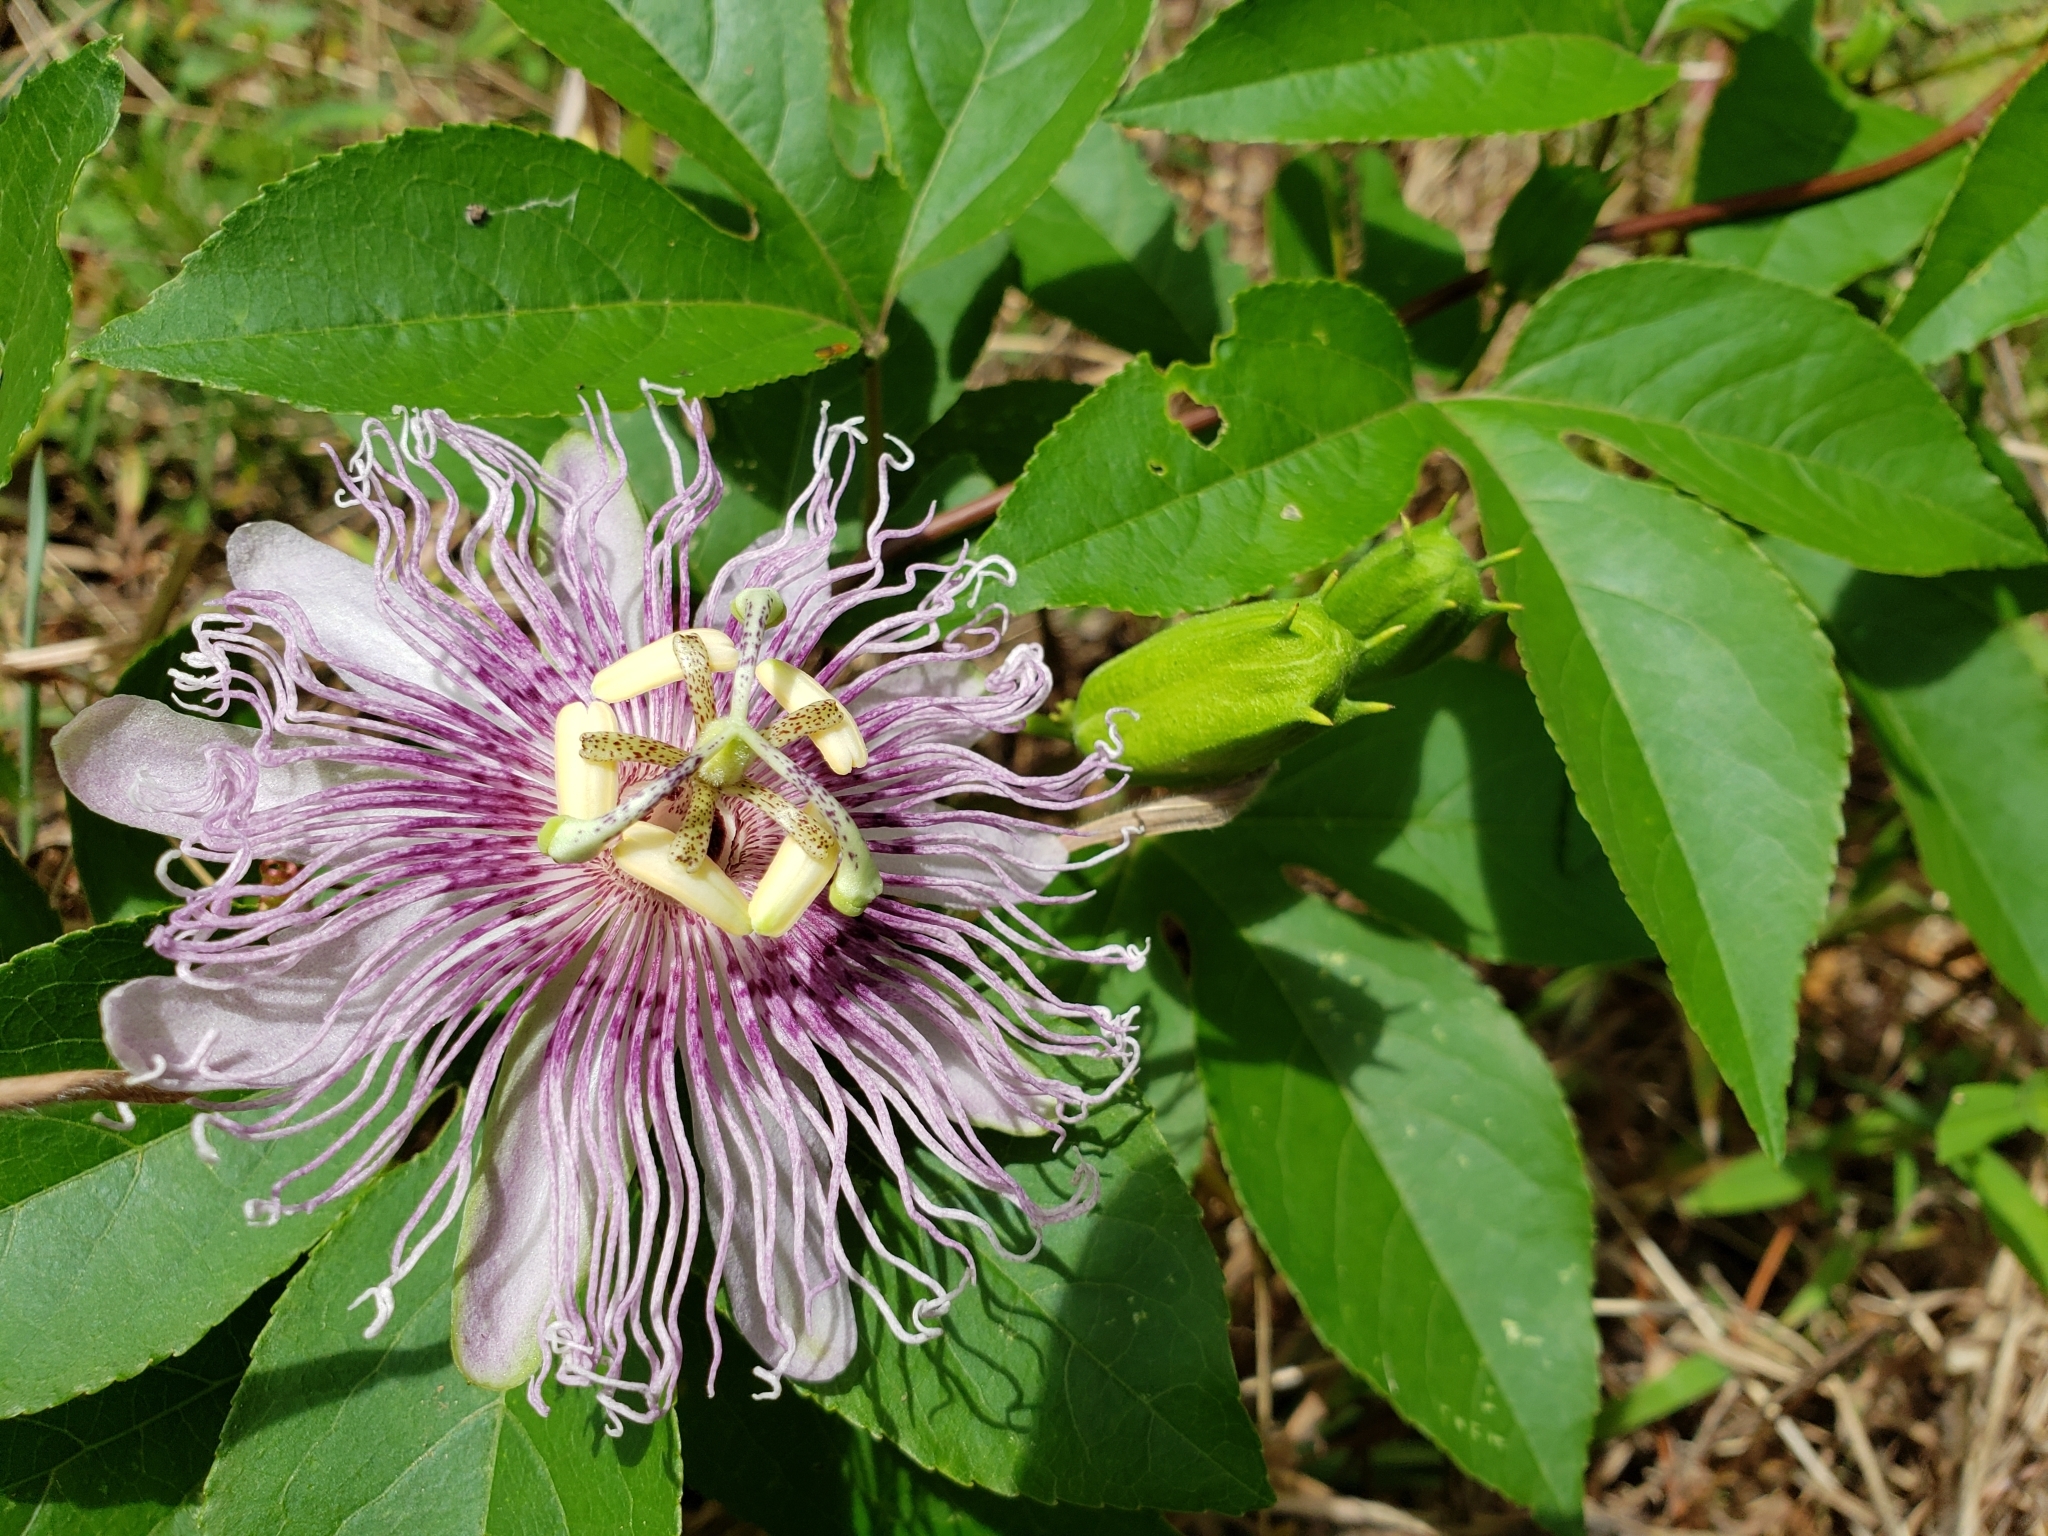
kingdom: Plantae
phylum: Tracheophyta
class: Magnoliopsida
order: Malpighiales
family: Passifloraceae
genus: Passiflora
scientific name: Passiflora incarnata
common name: Apricot-vine
